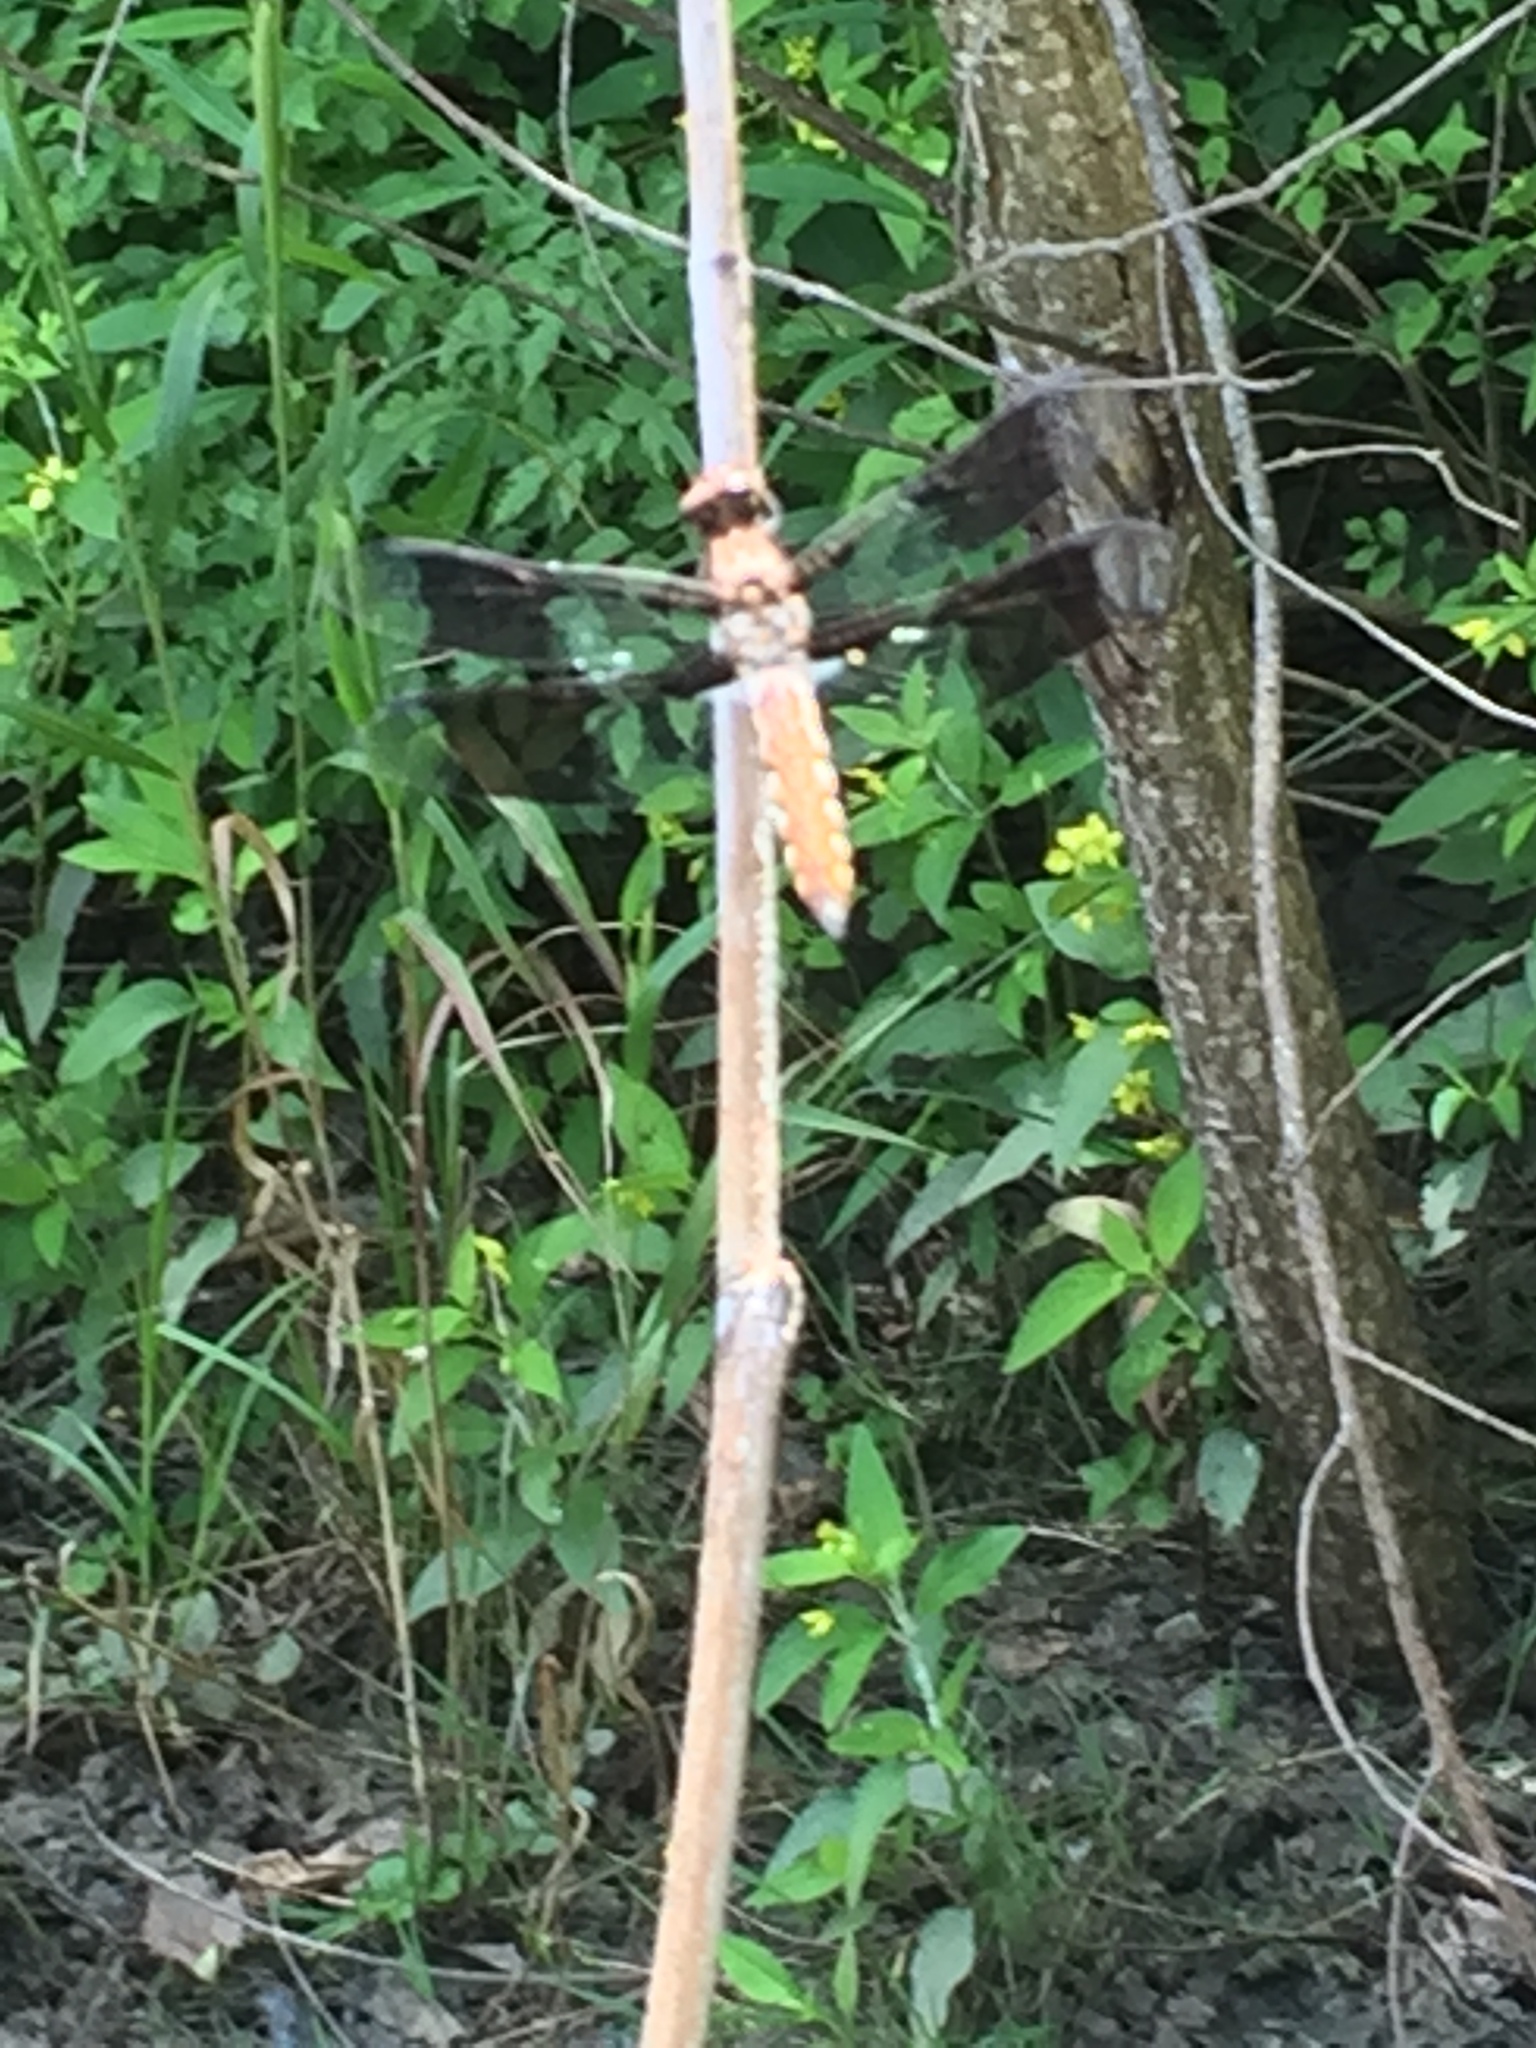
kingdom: Animalia
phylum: Arthropoda
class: Insecta
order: Odonata
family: Libellulidae
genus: Plathemis
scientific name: Plathemis lydia
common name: Common whitetail
